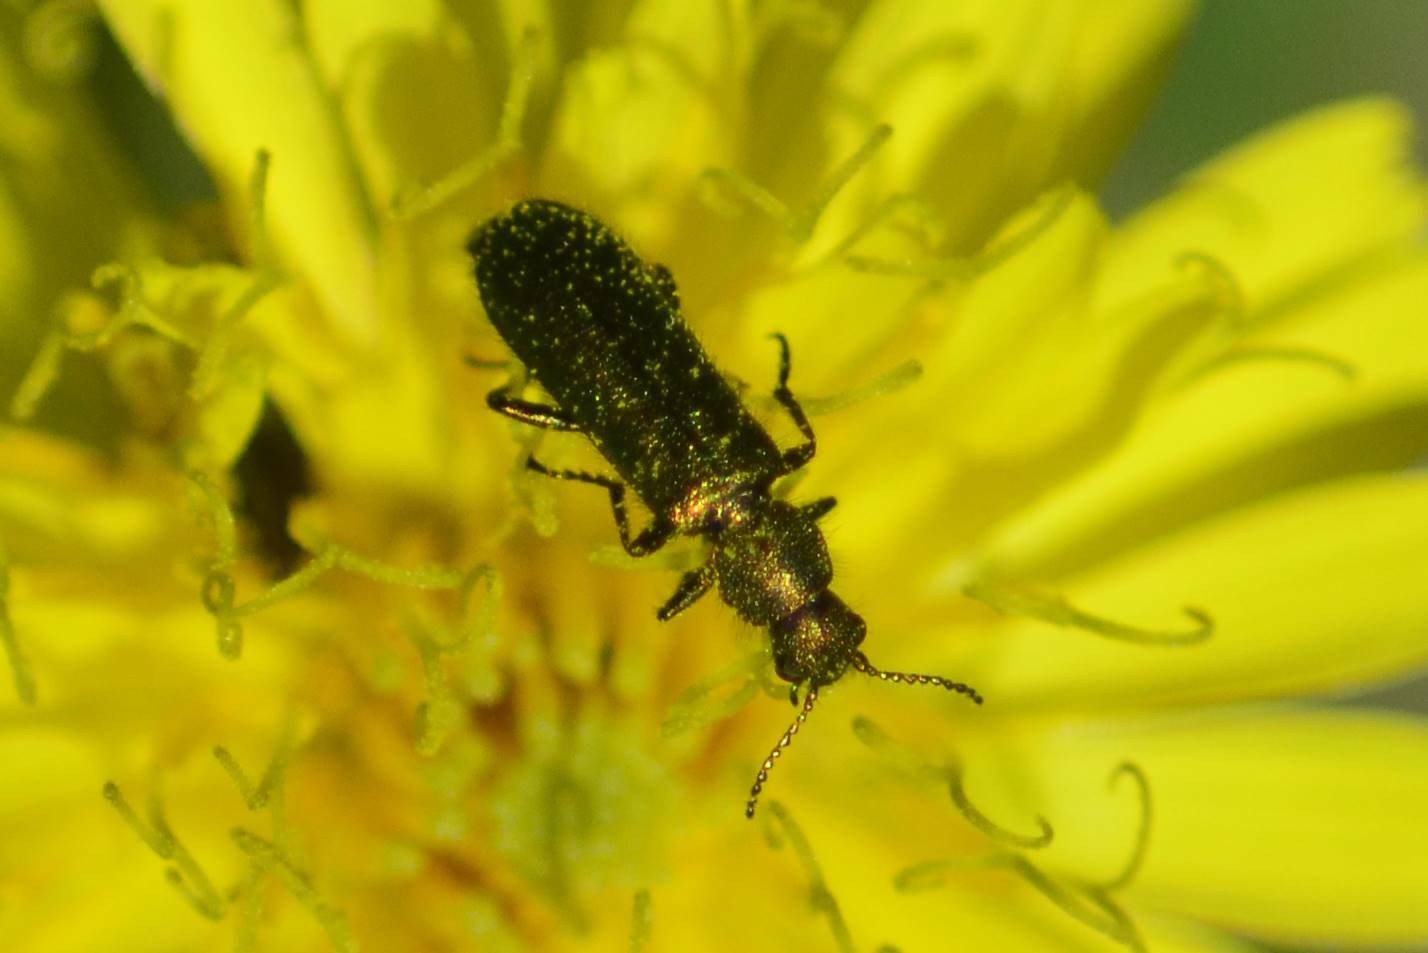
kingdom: Animalia
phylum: Arthropoda
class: Insecta
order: Coleoptera
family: Dasytidae
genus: Psilothrix
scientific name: Psilothrix viridicoerulea
